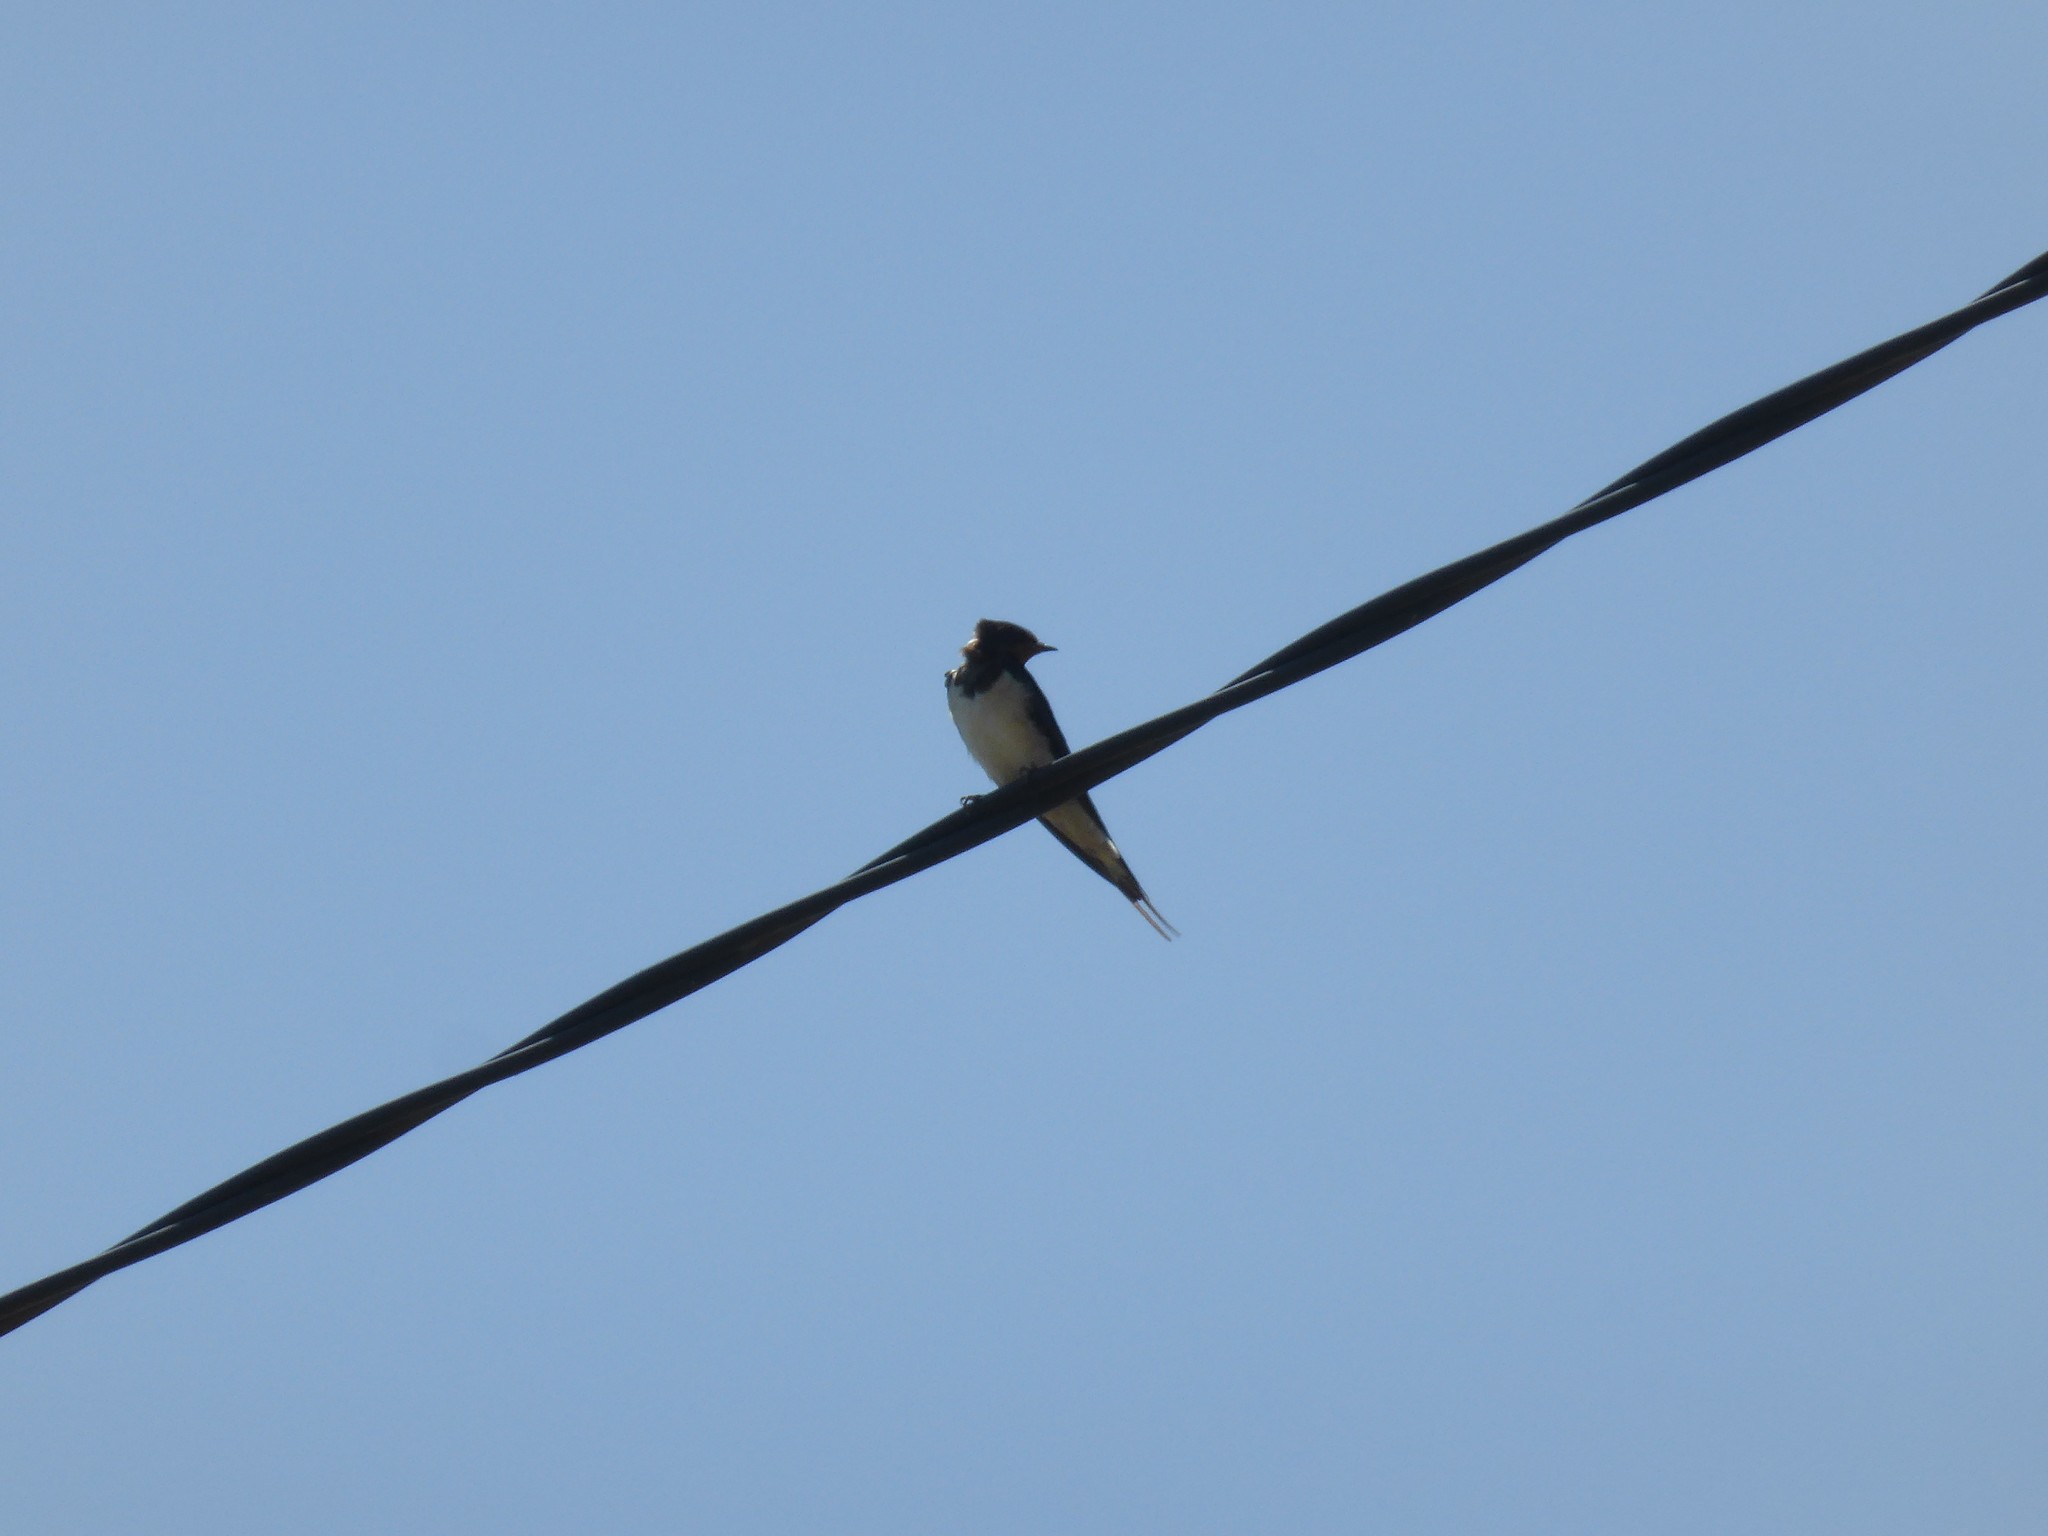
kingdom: Animalia
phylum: Chordata
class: Aves
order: Passeriformes
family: Hirundinidae
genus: Hirundo
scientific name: Hirundo rustica
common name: Barn swallow
